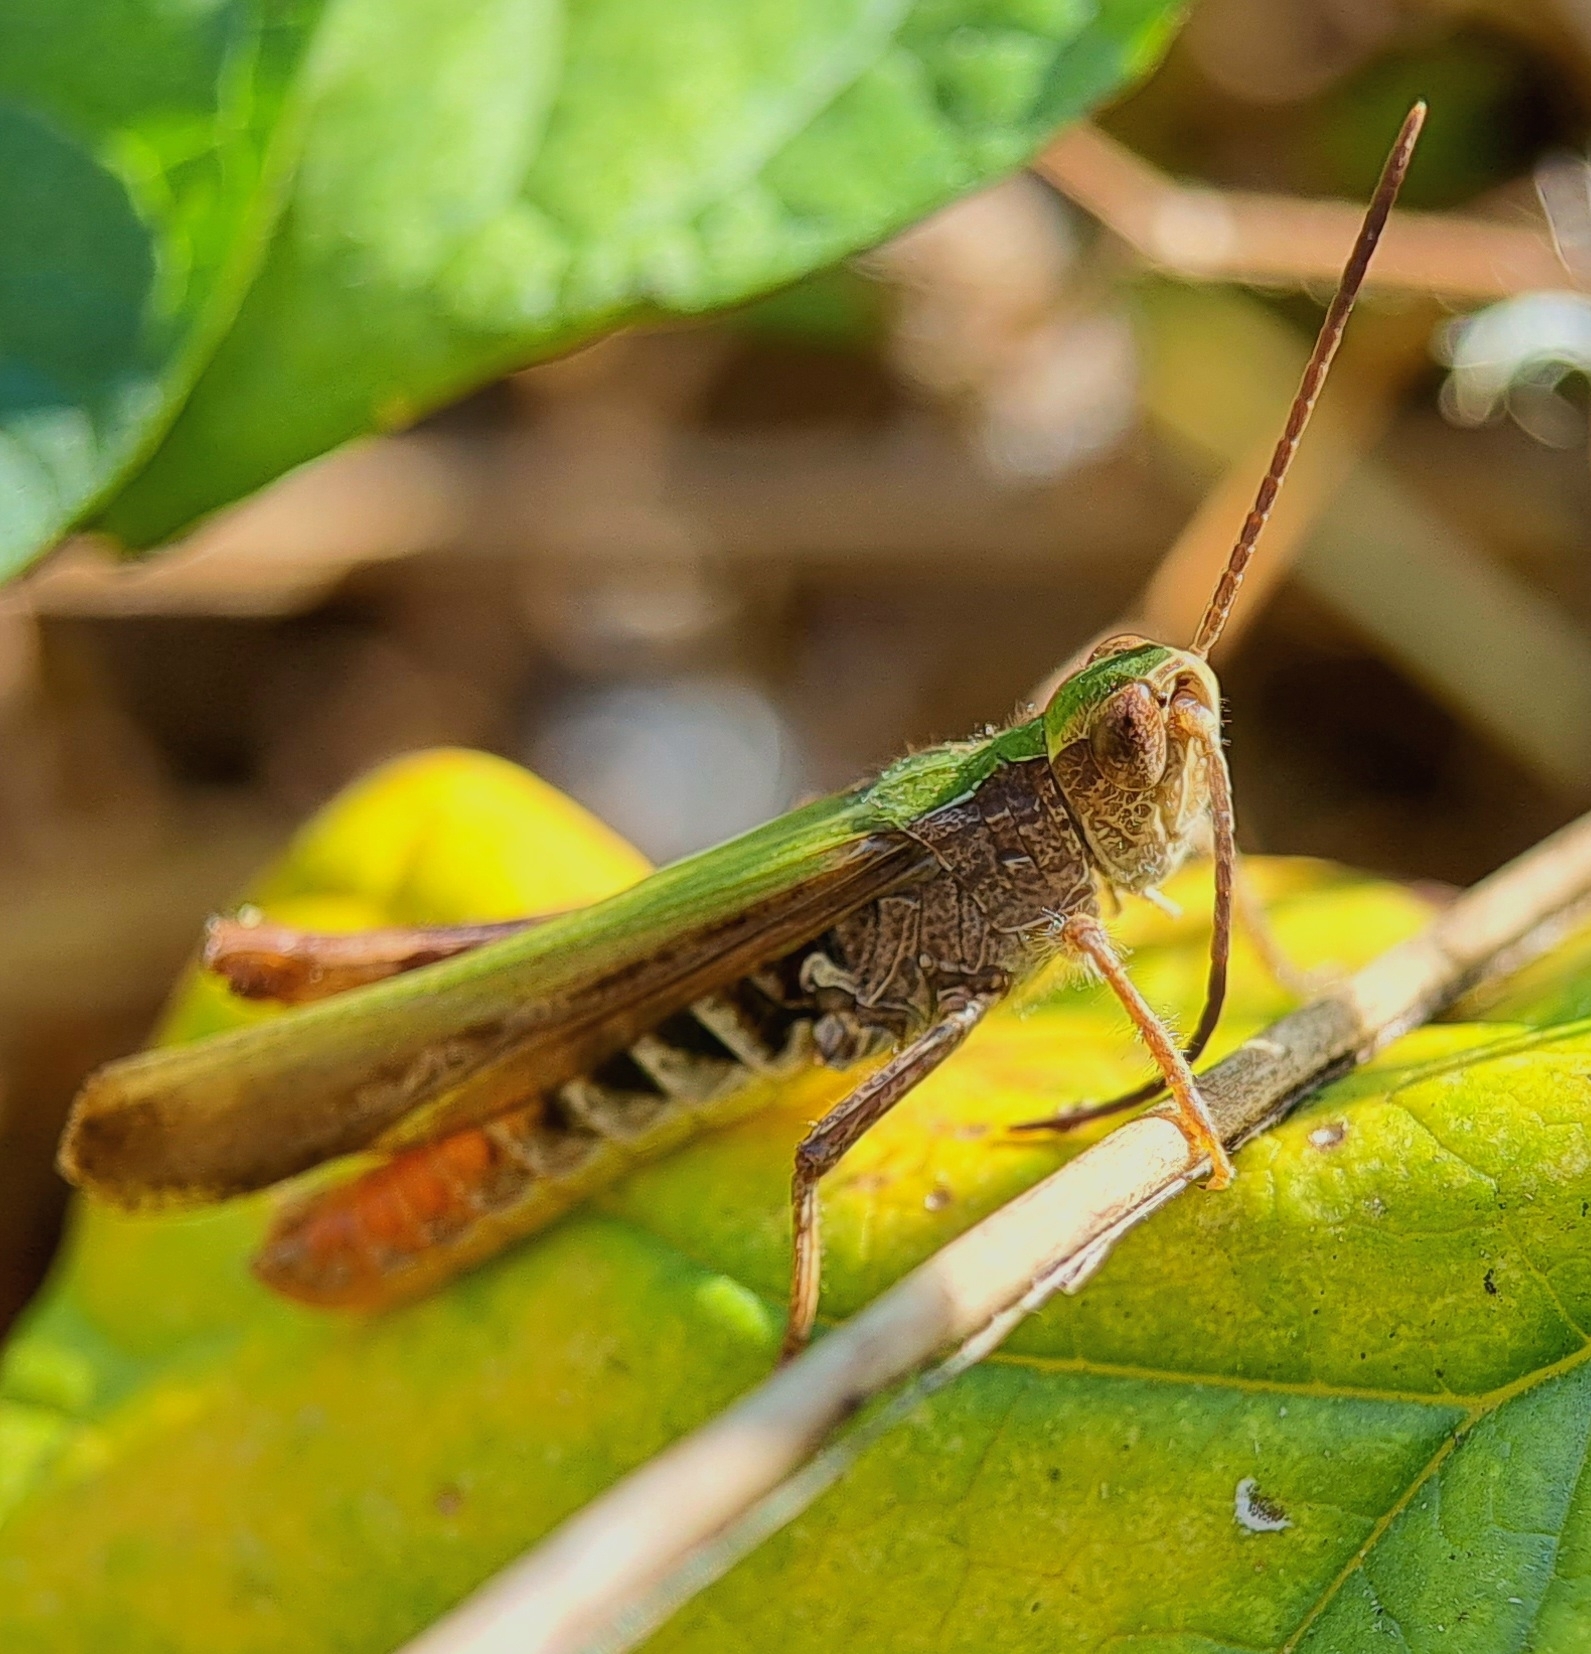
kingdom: Animalia
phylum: Arthropoda
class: Insecta
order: Orthoptera
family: Acrididae
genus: Chorthippus
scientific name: Chorthippus brunneus
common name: Field grasshopper
